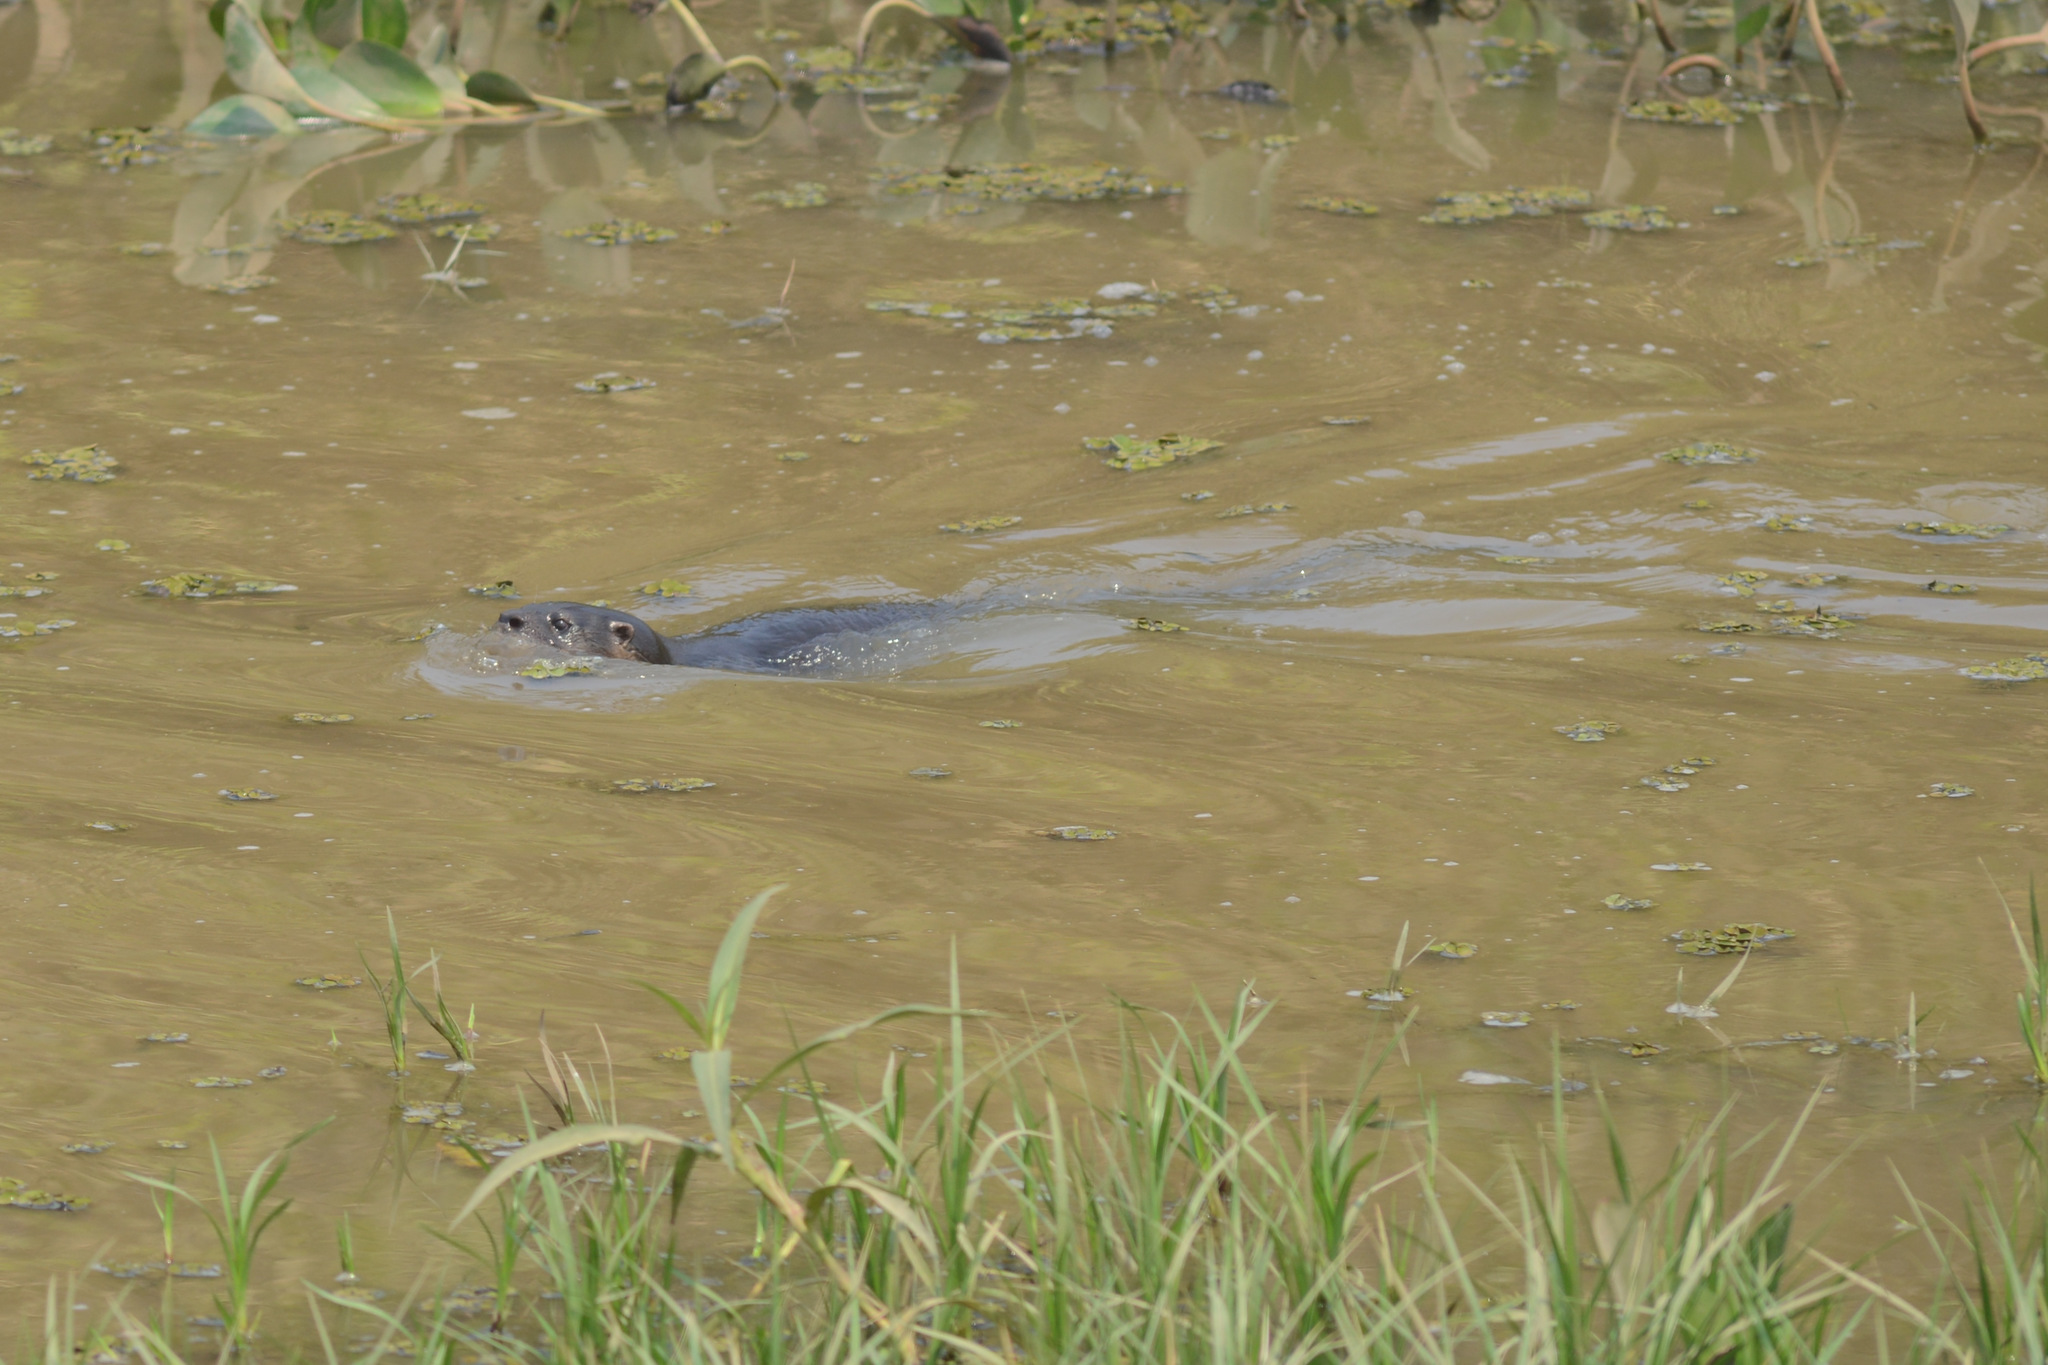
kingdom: Animalia
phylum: Chordata
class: Mammalia
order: Carnivora
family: Mustelidae
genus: Lontra
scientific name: Lontra longicaudis
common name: Neotropical otter
